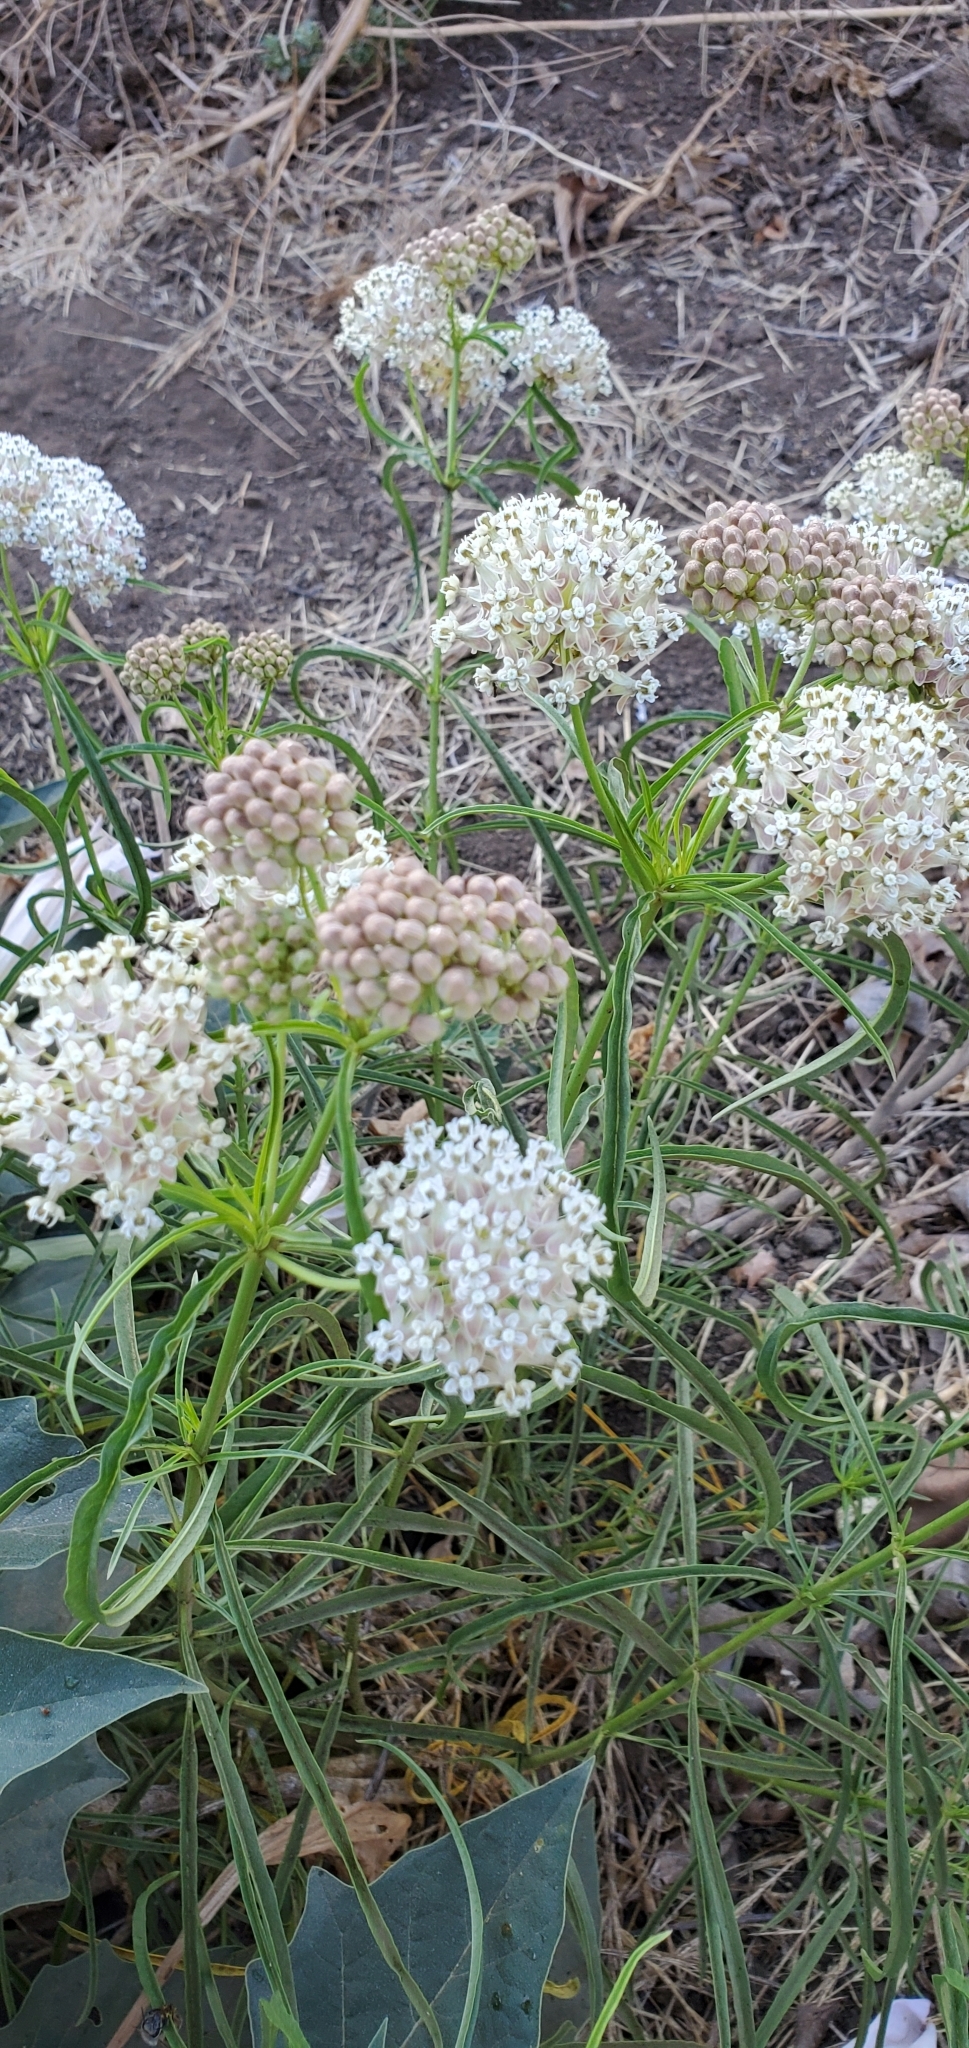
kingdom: Plantae
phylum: Tracheophyta
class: Magnoliopsida
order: Gentianales
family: Apocynaceae
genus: Asclepias
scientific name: Asclepias fascicularis
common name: Mexican milkweed
